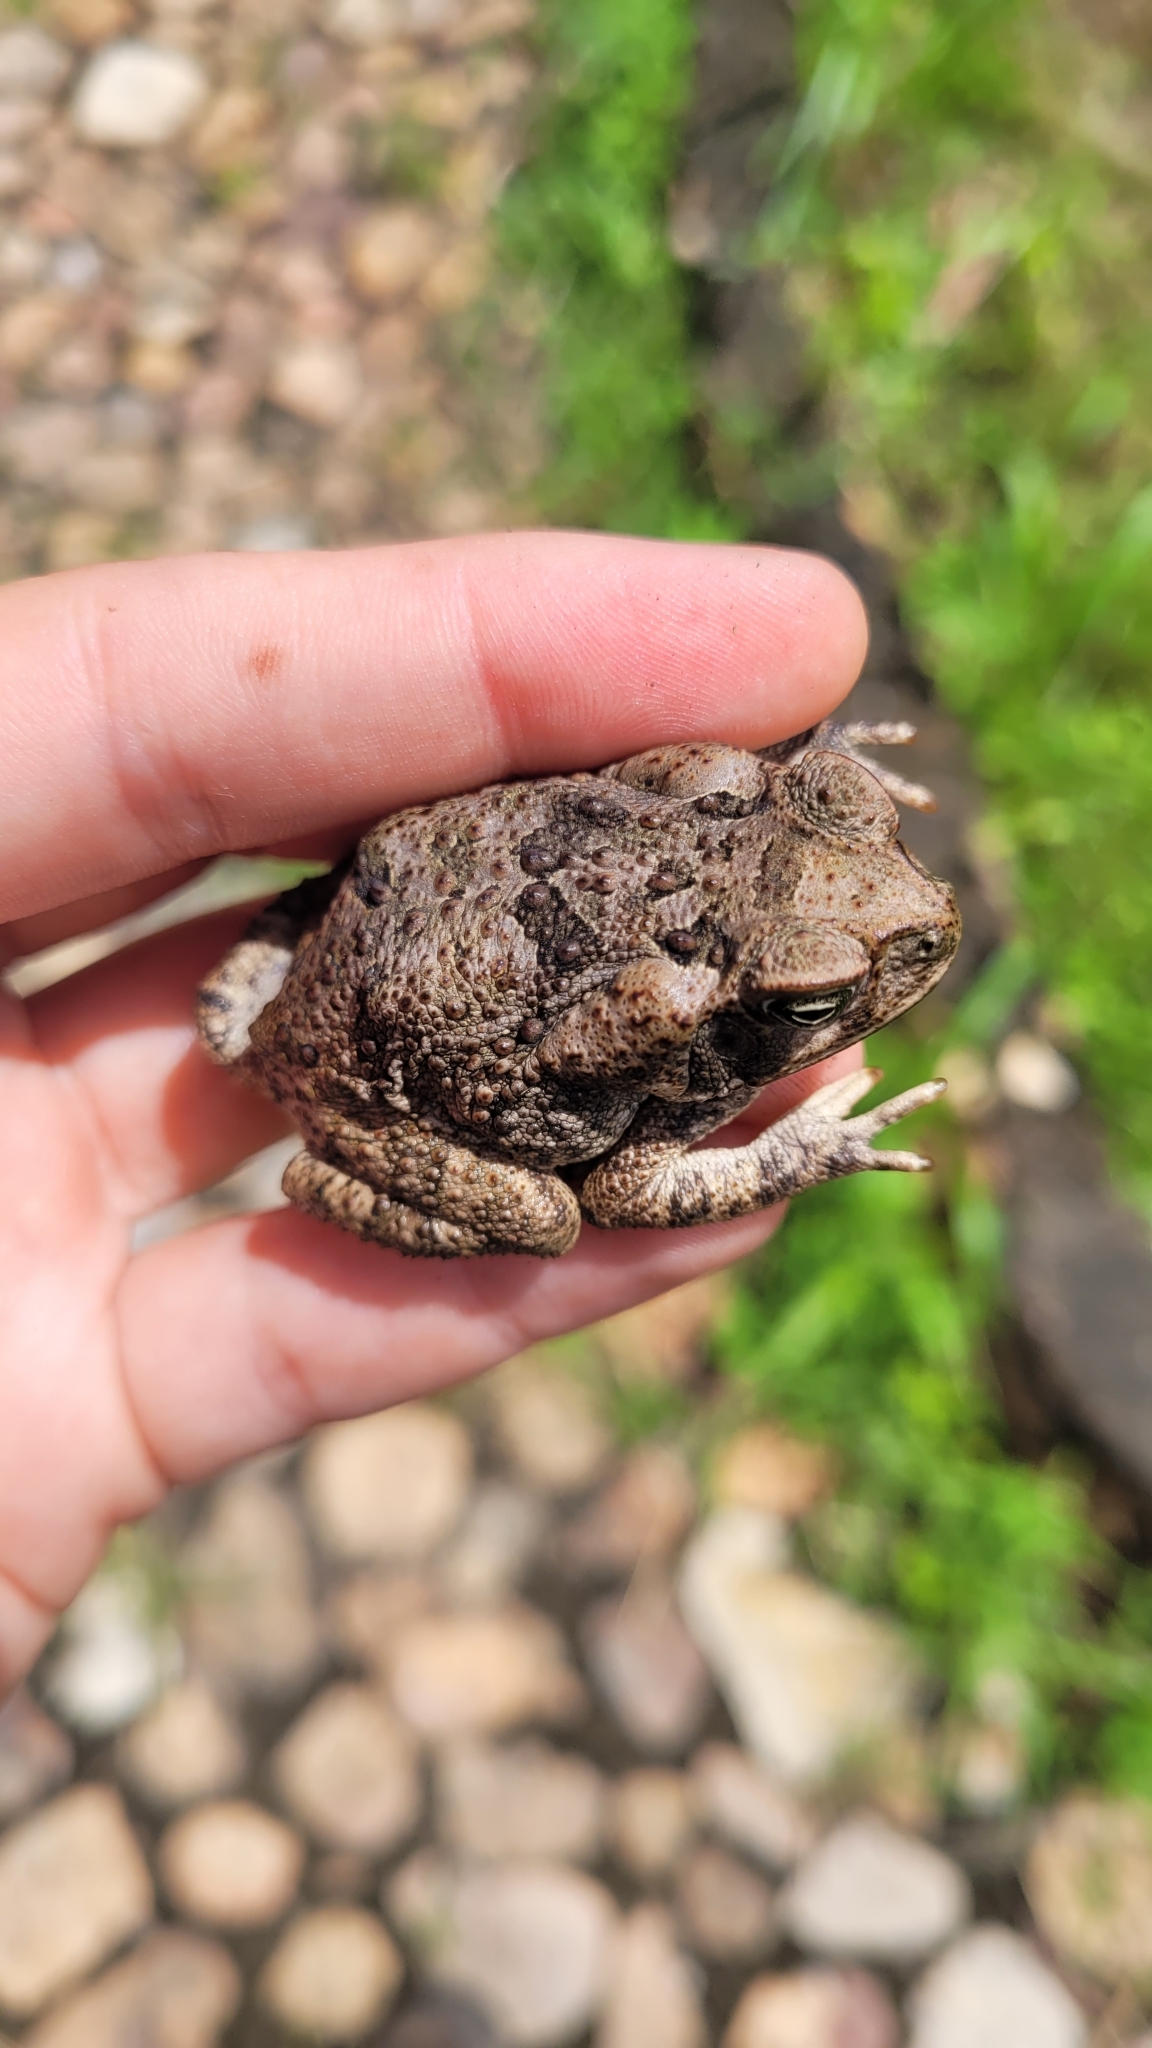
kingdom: Animalia
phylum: Chordata
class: Amphibia
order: Anura
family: Bufonidae
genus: Rhinella
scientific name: Rhinella horribilis
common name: Mesoamerican cane toad
